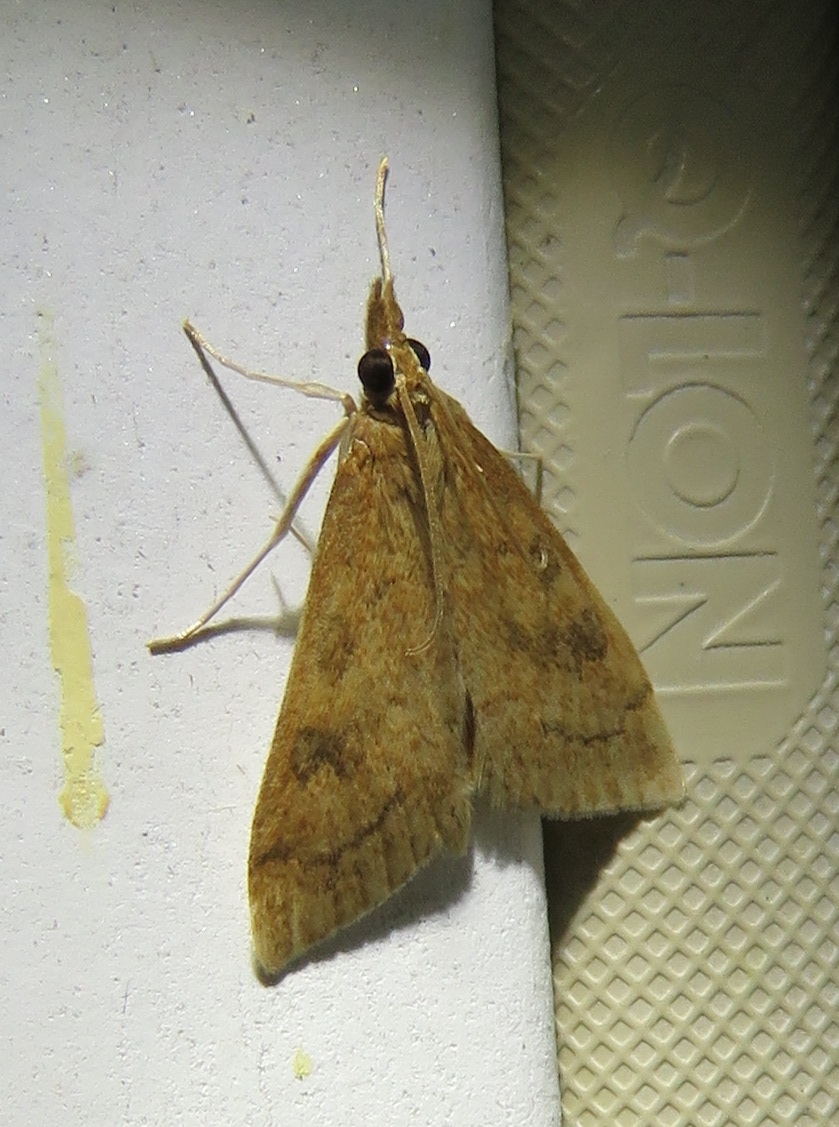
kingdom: Animalia
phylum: Arthropoda
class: Insecta
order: Lepidoptera
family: Crambidae
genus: Udea
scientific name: Udea rubigalis
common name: Celery leaftier moth
